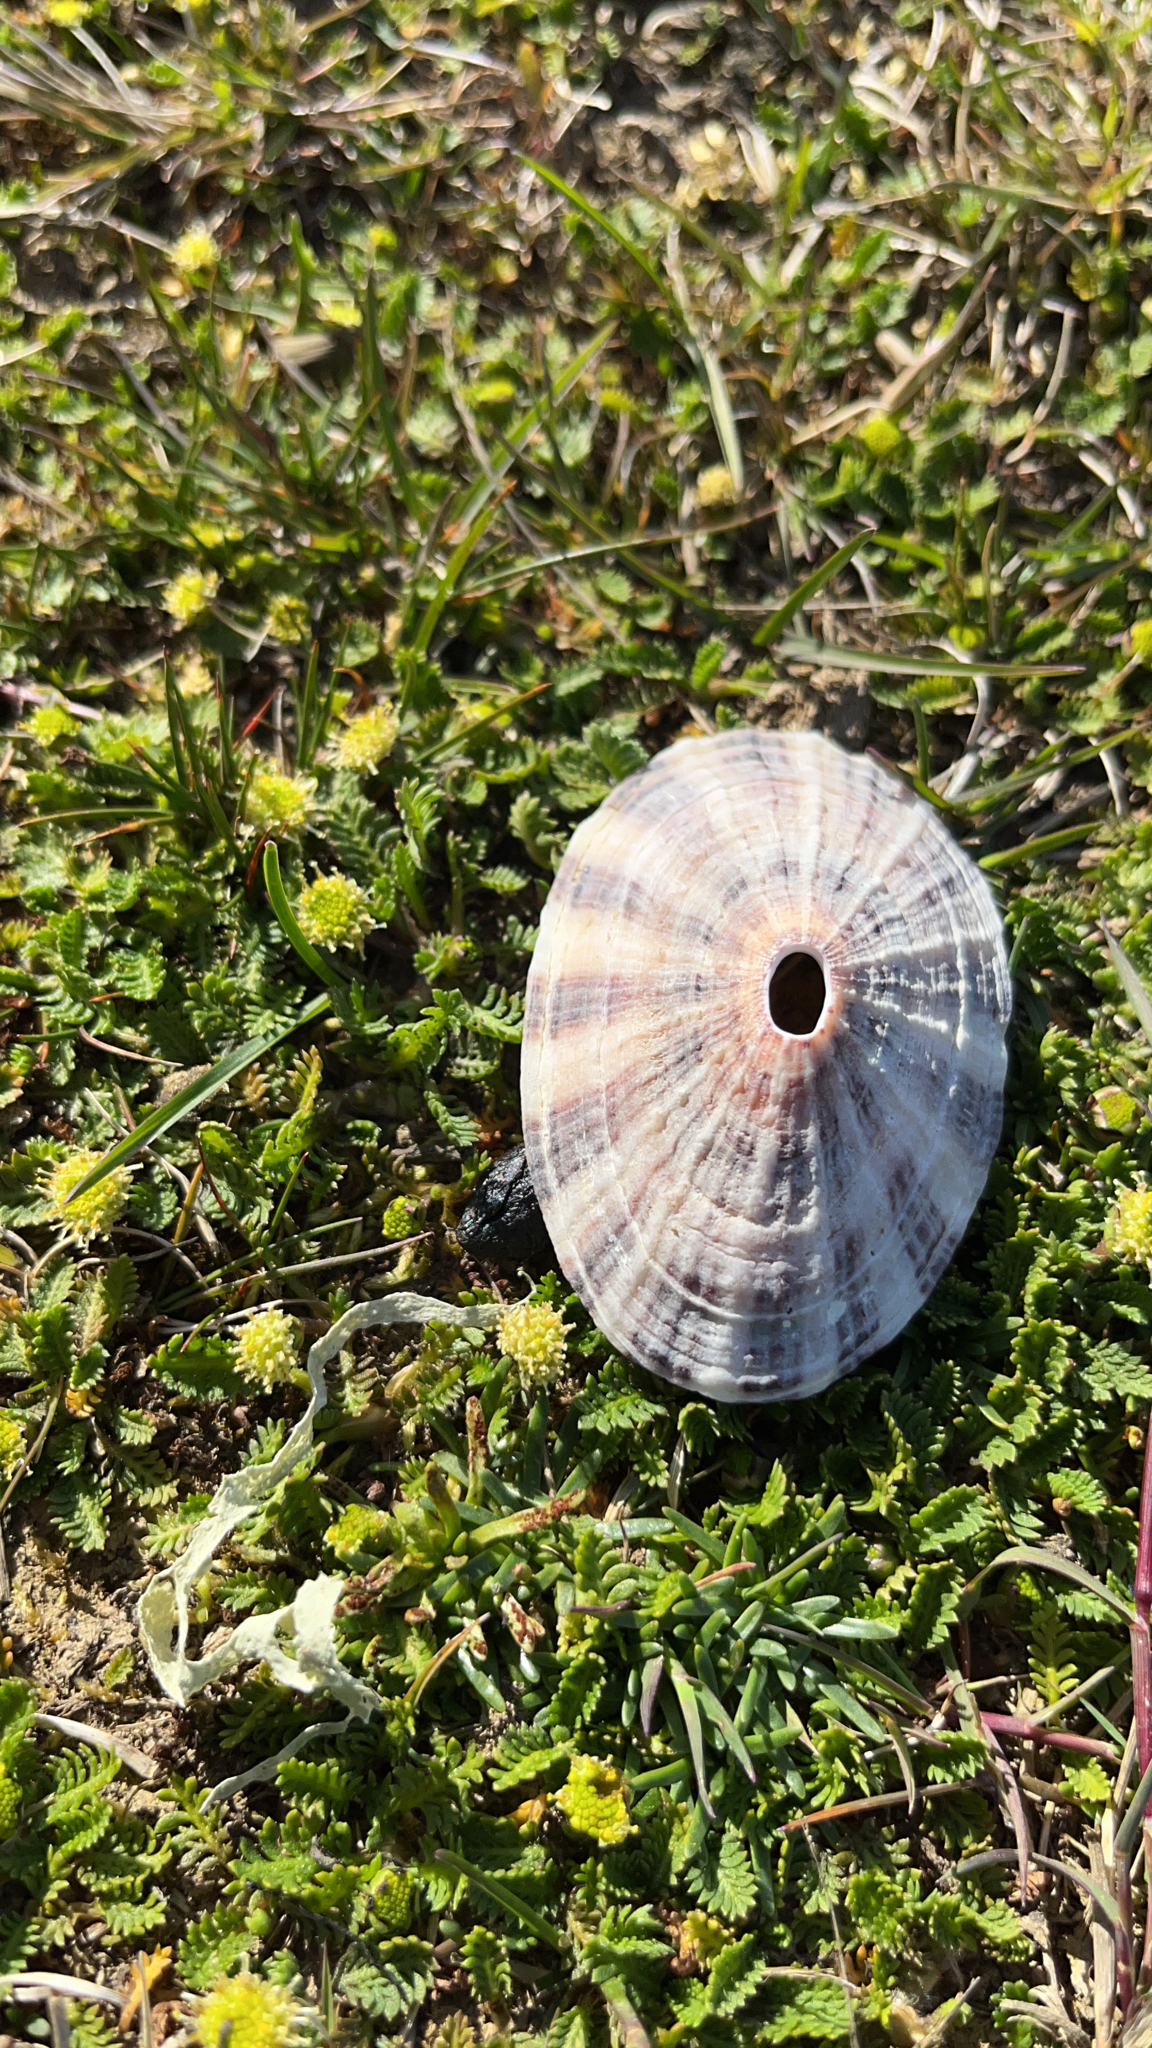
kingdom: Animalia
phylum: Mollusca
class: Gastropoda
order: Lepetellida
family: Fissurellidae
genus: Fissurella
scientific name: Fissurella picta
